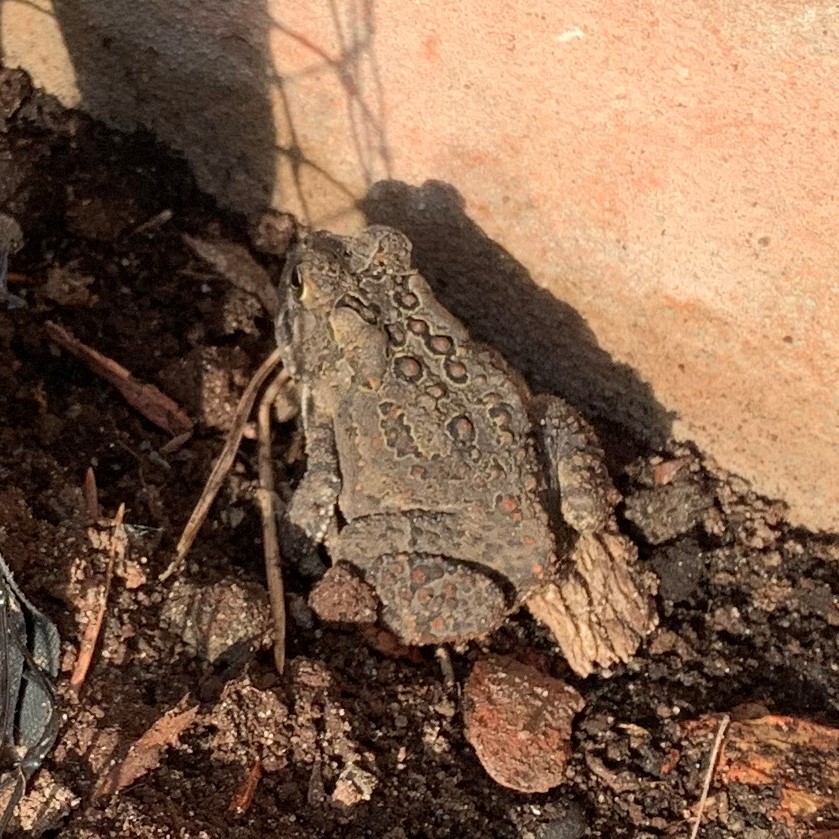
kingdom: Animalia
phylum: Chordata
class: Amphibia
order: Anura
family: Bufonidae
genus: Anaxyrus
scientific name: Anaxyrus americanus
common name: American toad
